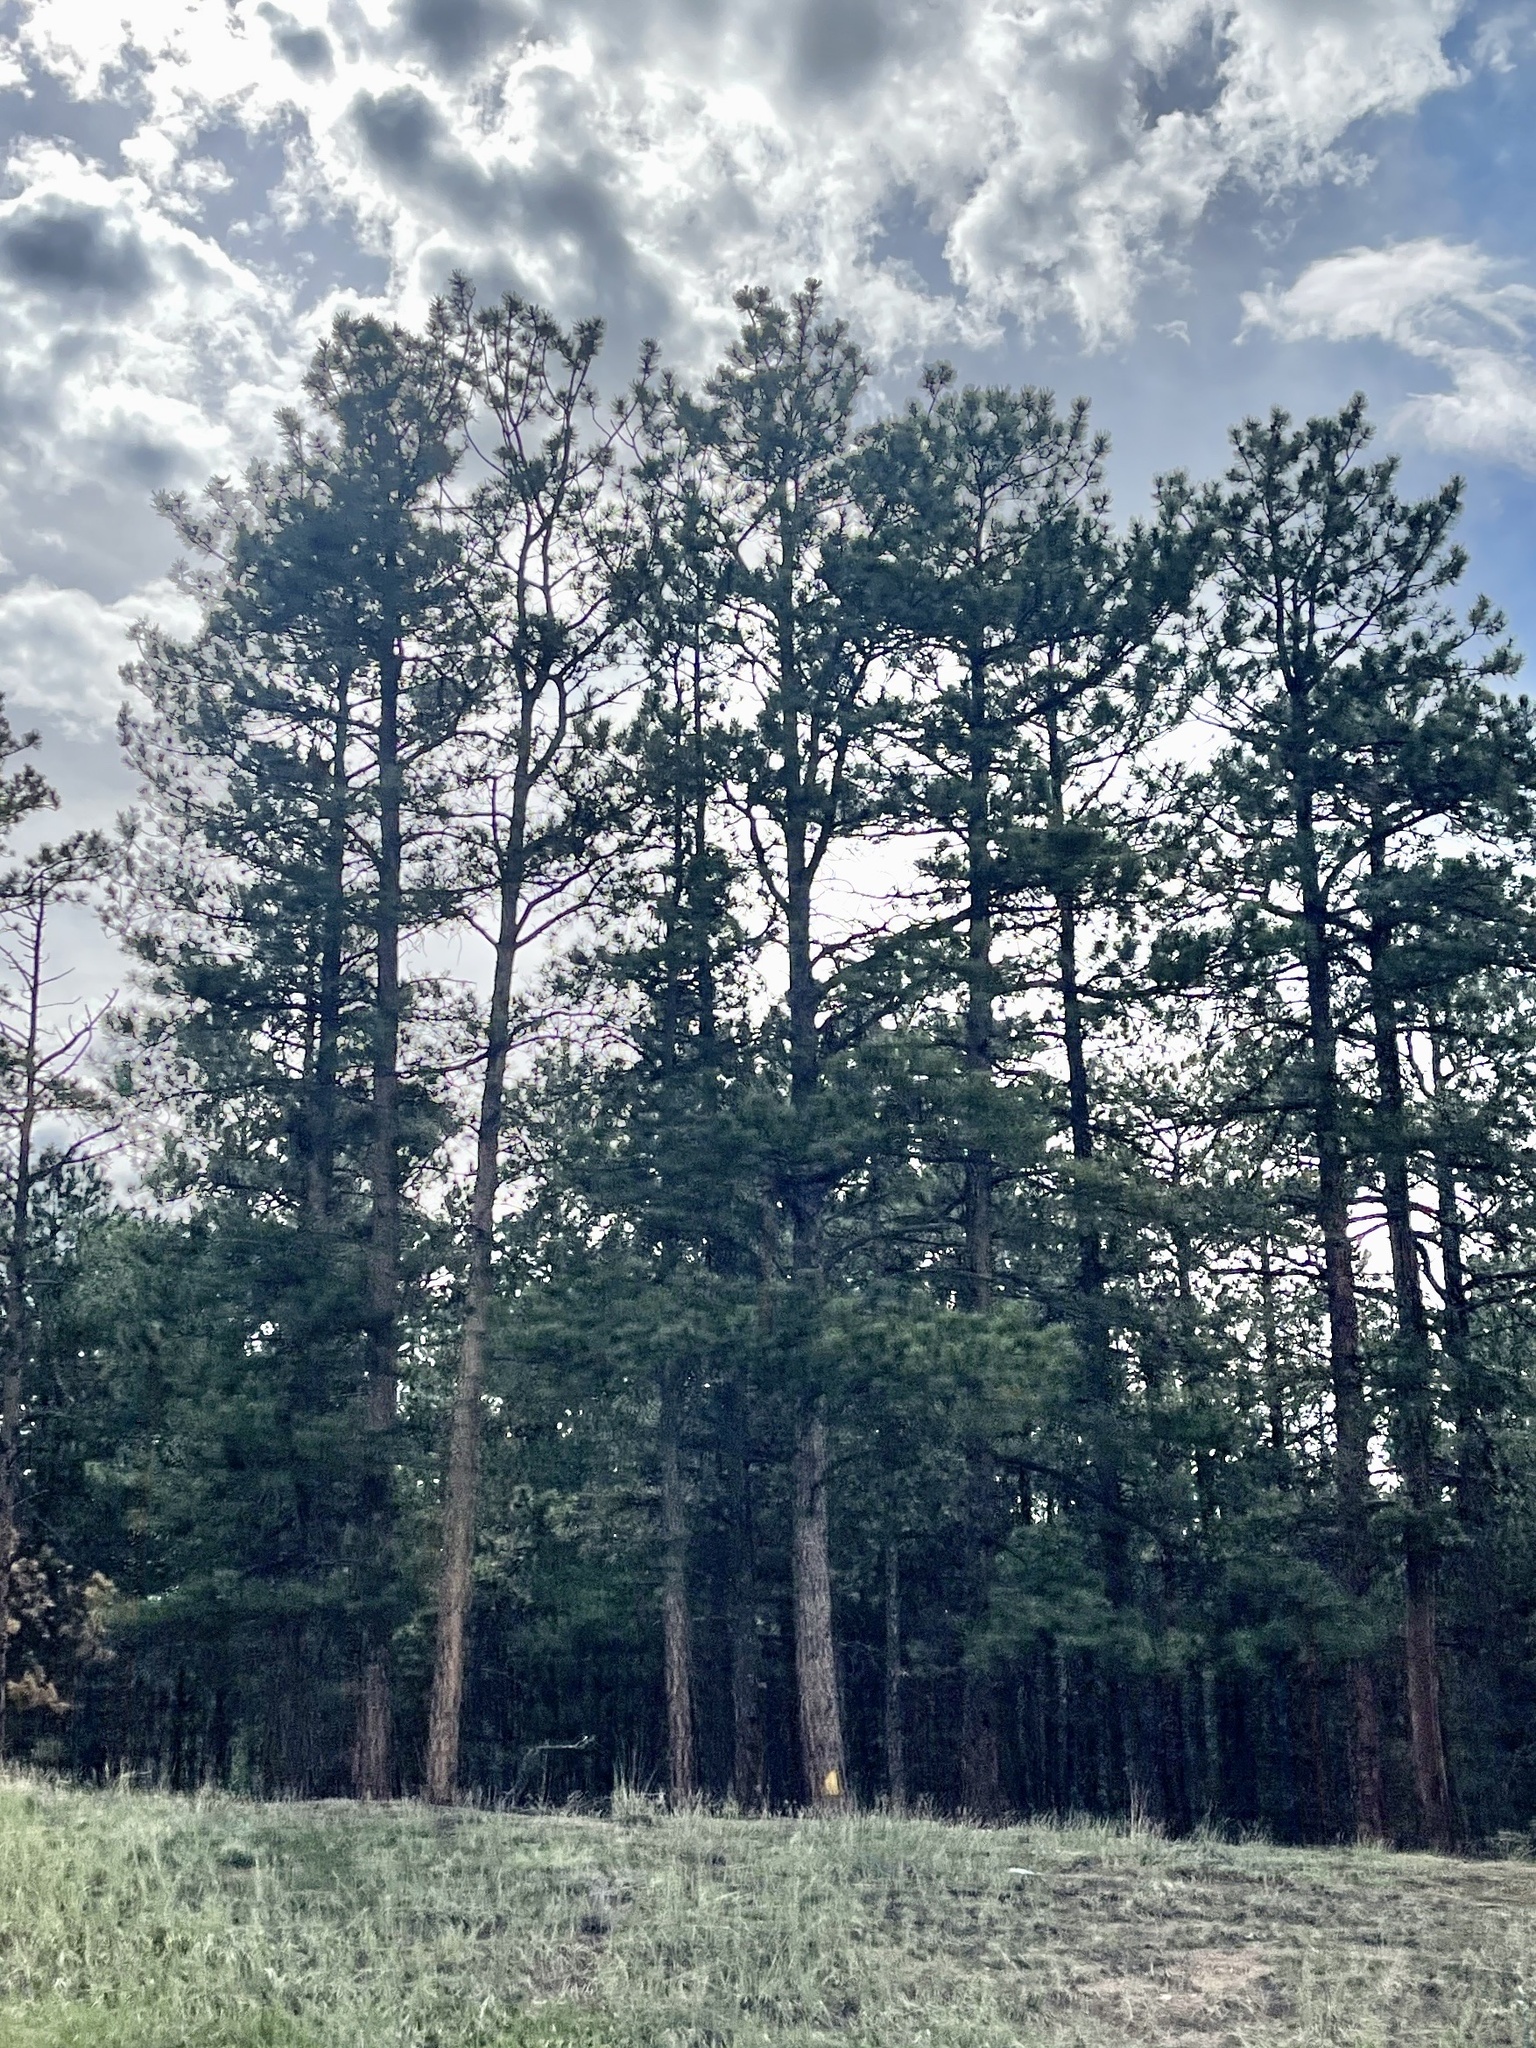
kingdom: Plantae
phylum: Tracheophyta
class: Pinopsida
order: Pinales
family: Pinaceae
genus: Pinus
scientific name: Pinus ponderosa
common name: Western yellow-pine
